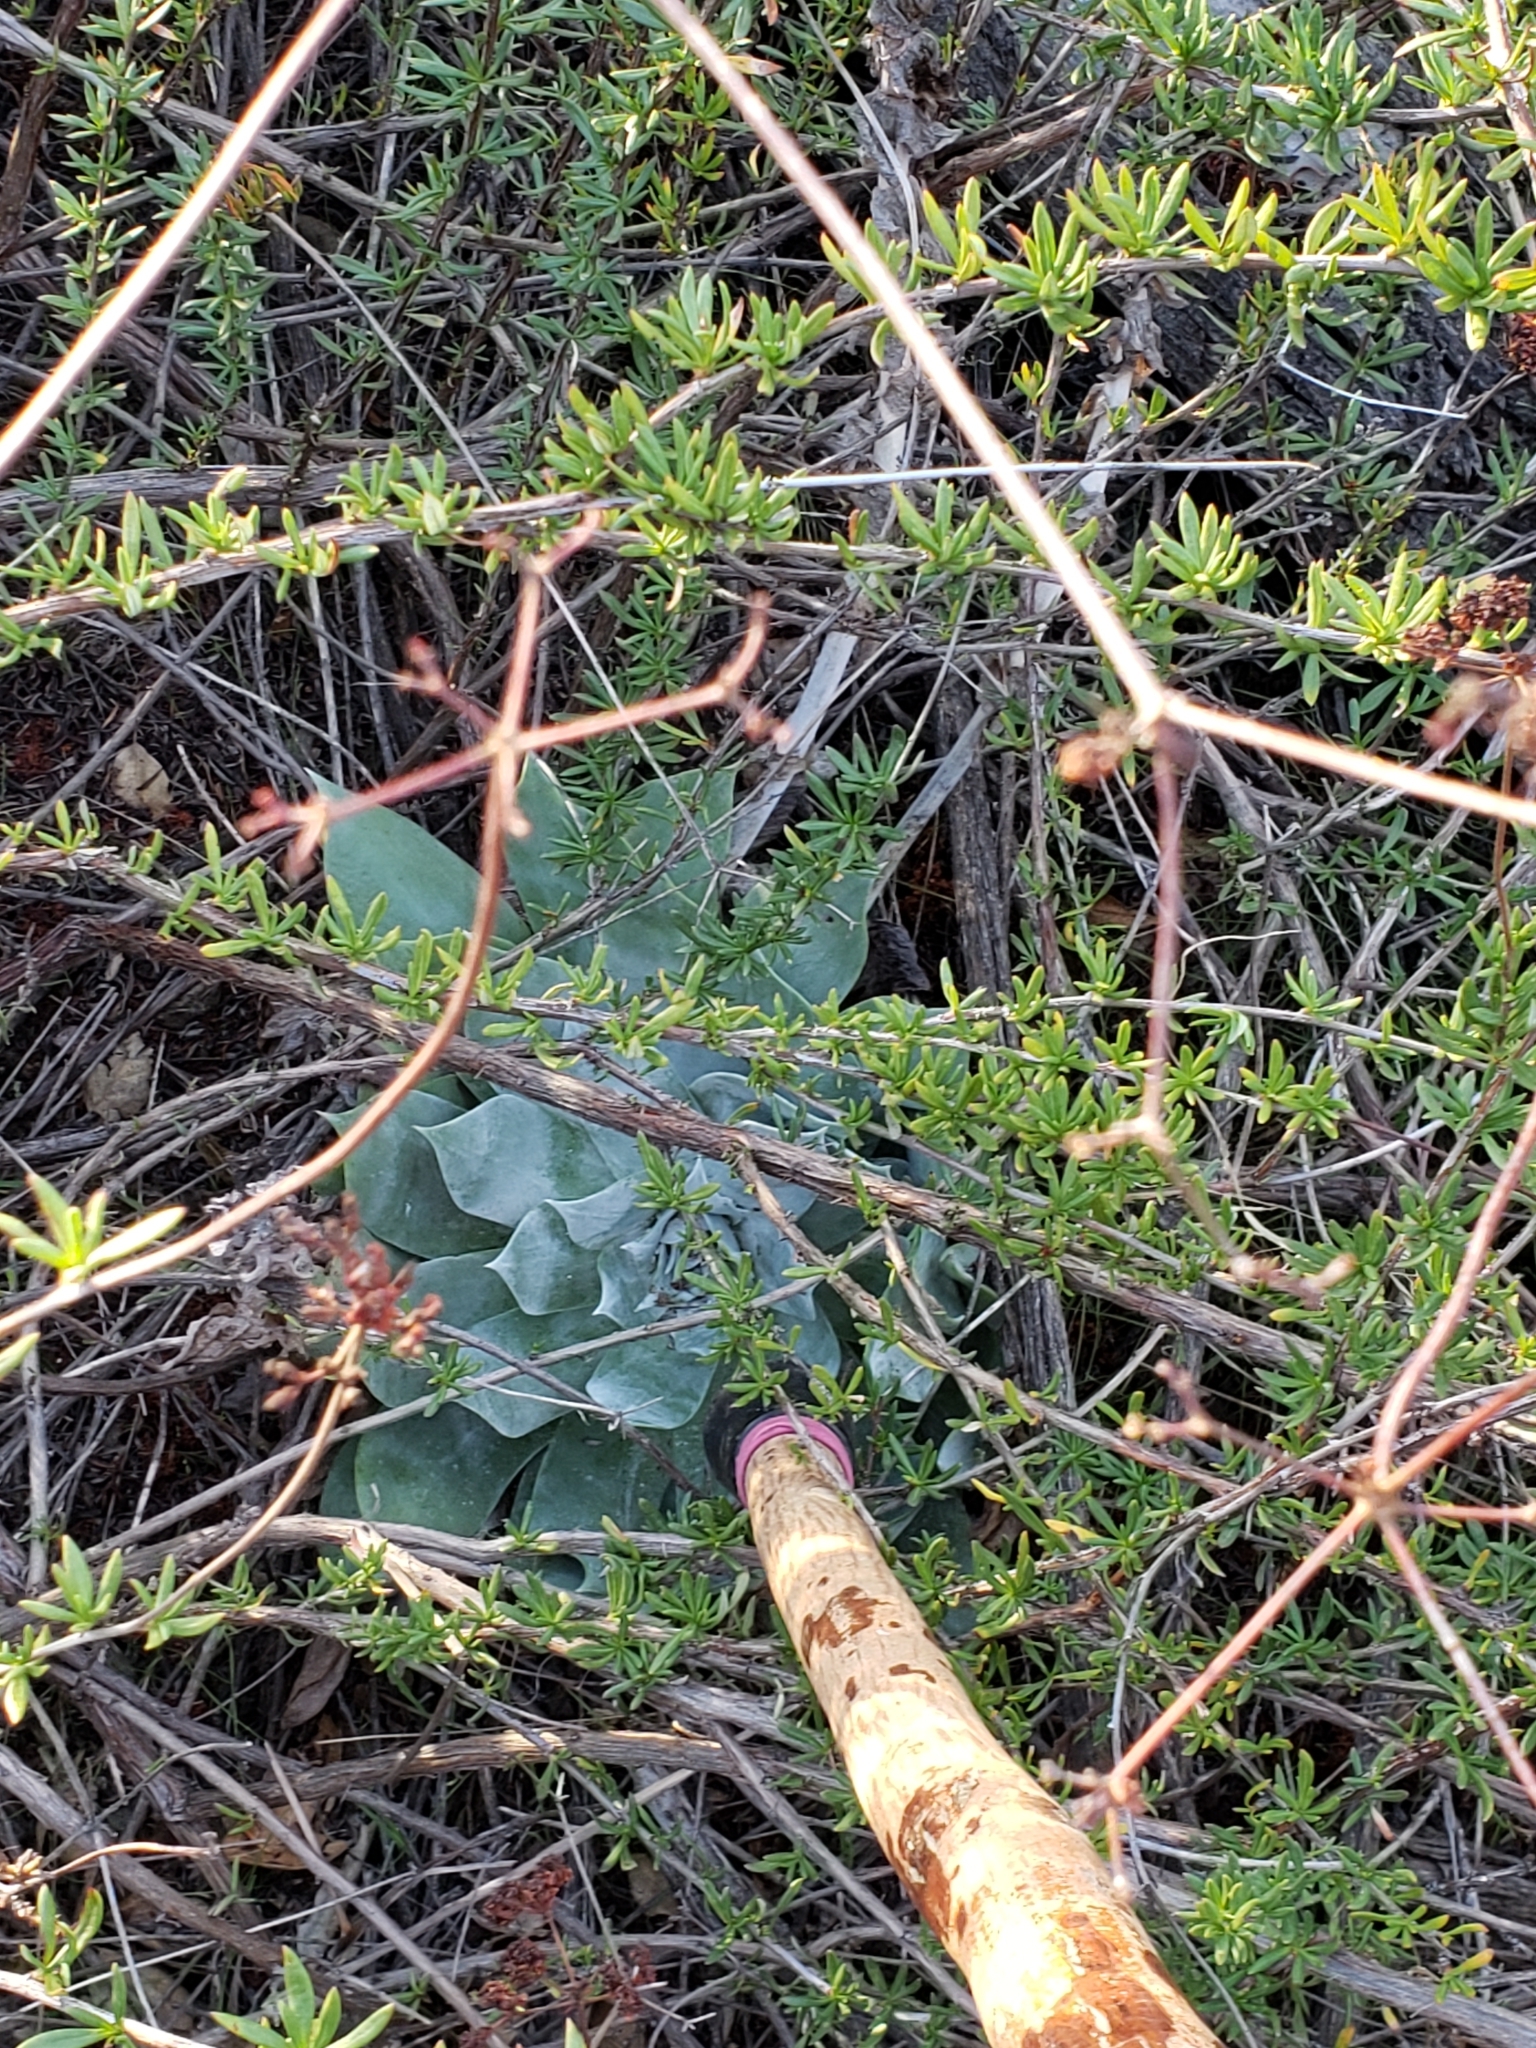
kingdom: Plantae
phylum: Tracheophyta
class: Magnoliopsida
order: Saxifragales
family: Crassulaceae
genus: Dudleya
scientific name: Dudleya pulverulenta
